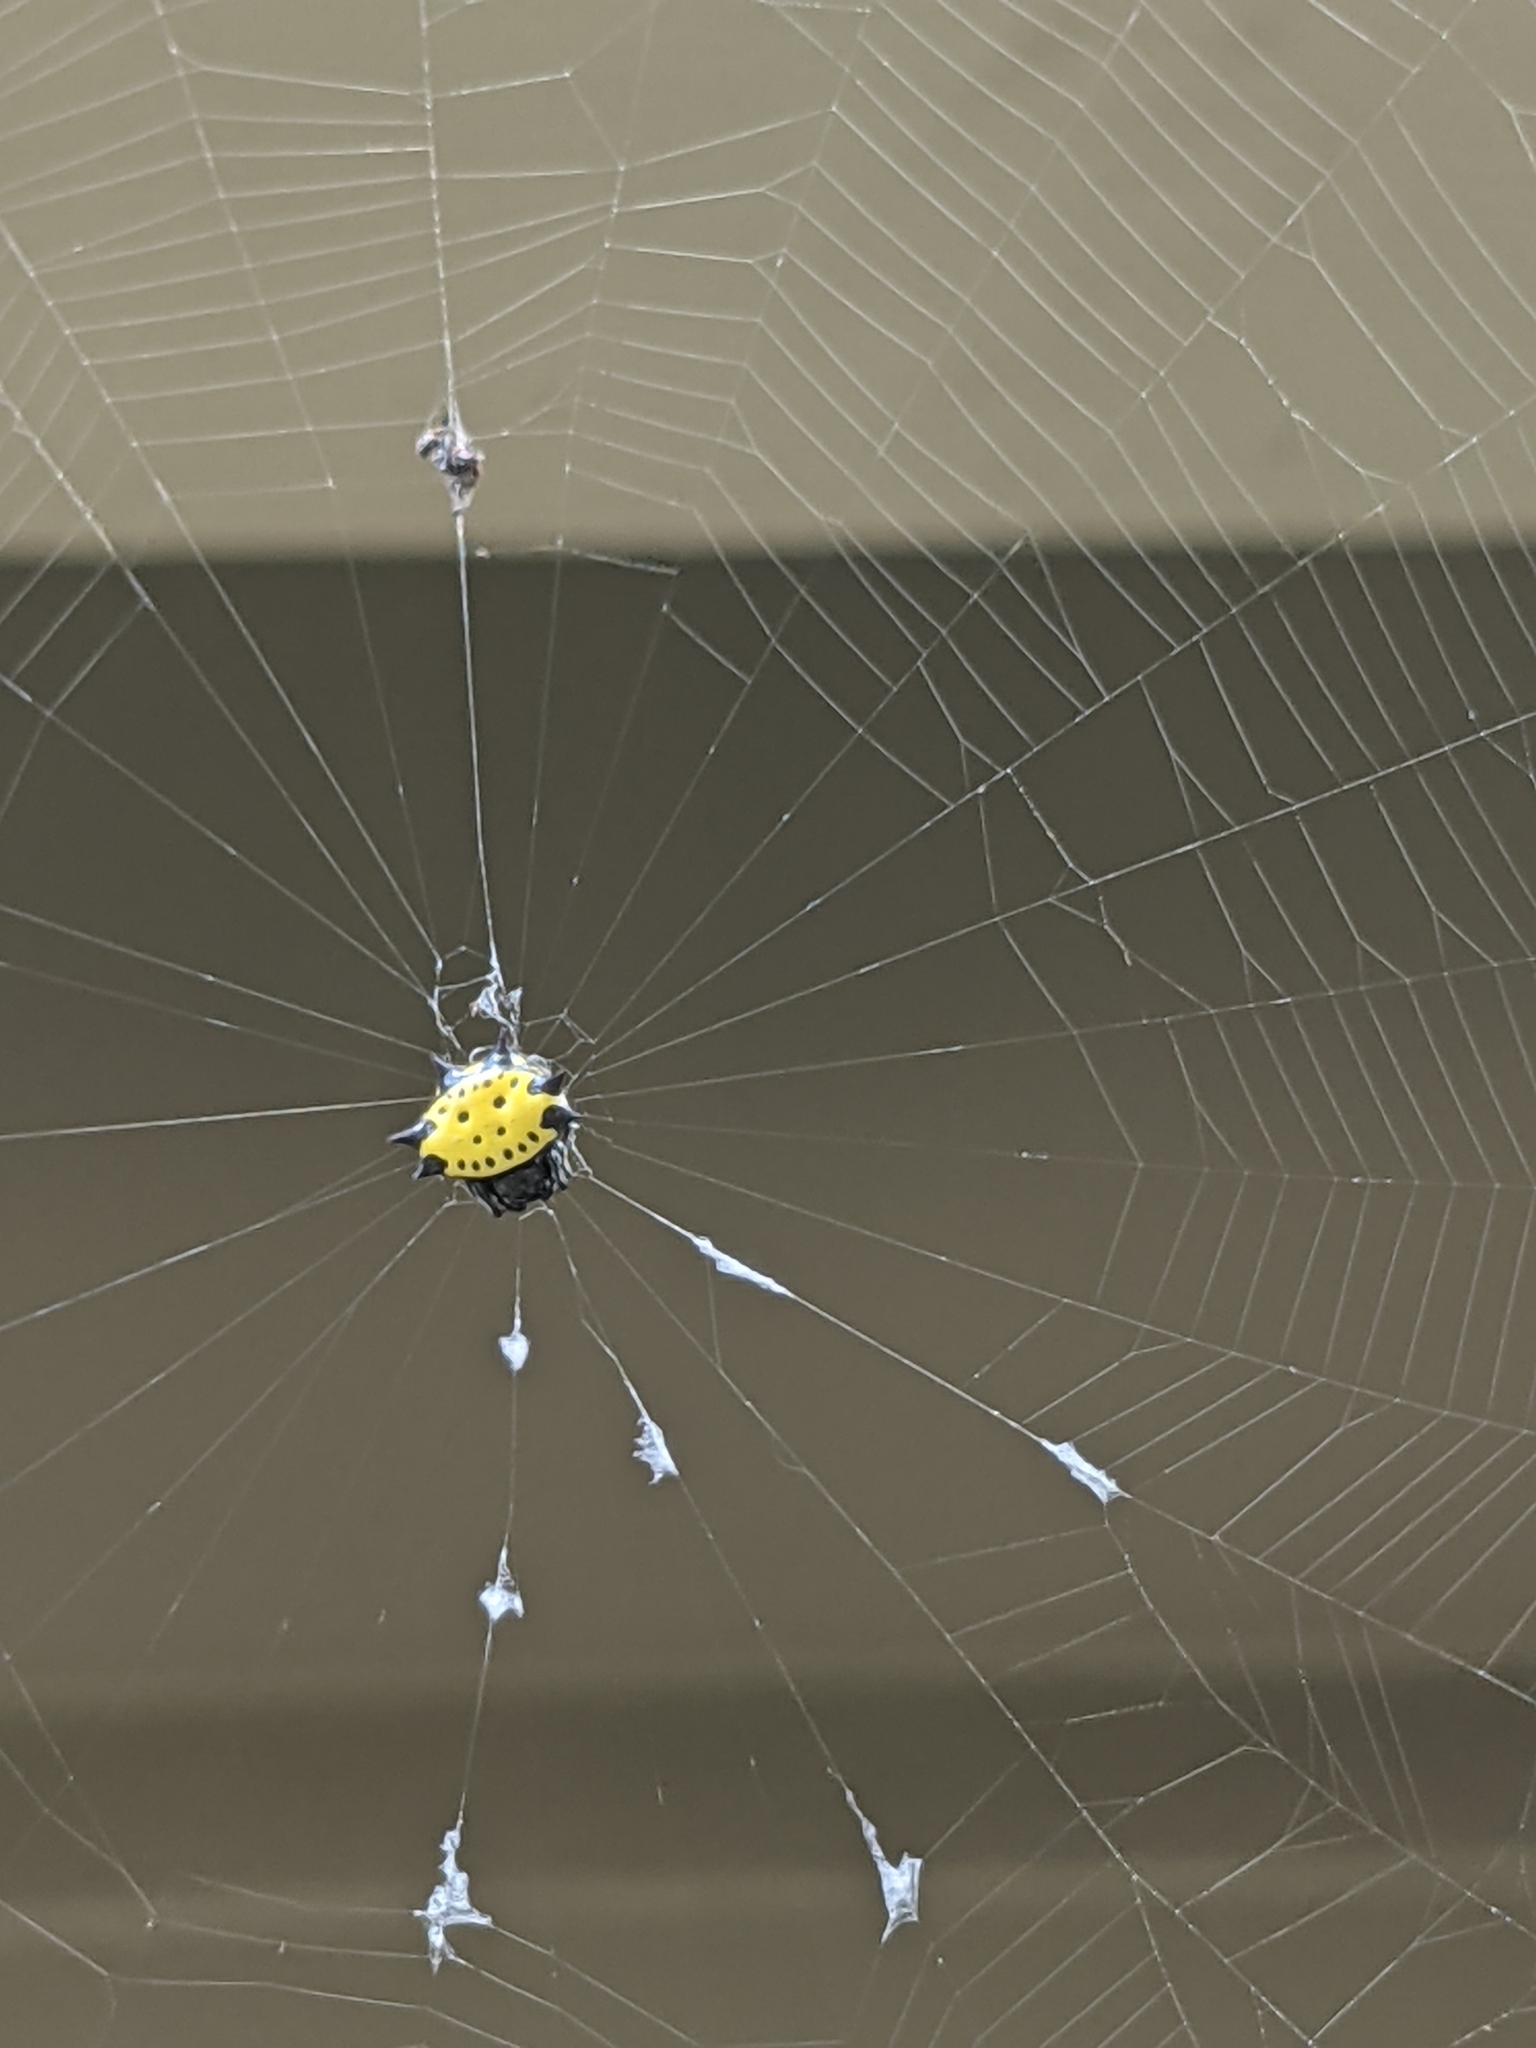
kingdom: Animalia
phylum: Arthropoda
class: Arachnida
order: Araneae
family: Araneidae
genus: Gasteracantha
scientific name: Gasteracantha cancriformis
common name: Orb weavers
